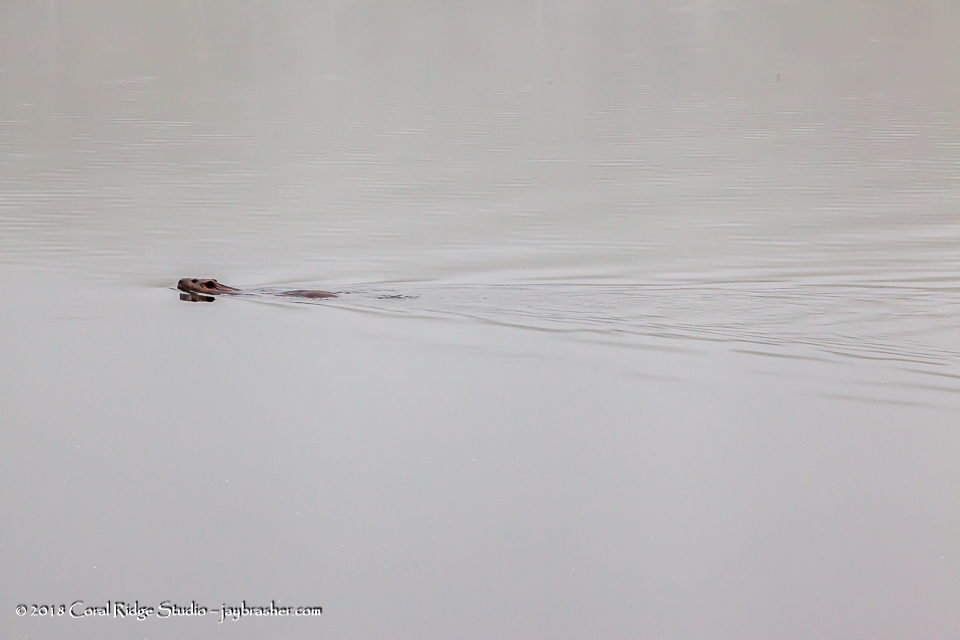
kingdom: Animalia
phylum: Chordata
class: Mammalia
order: Rodentia
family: Castoridae
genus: Castor
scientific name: Castor canadensis
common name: American beaver
